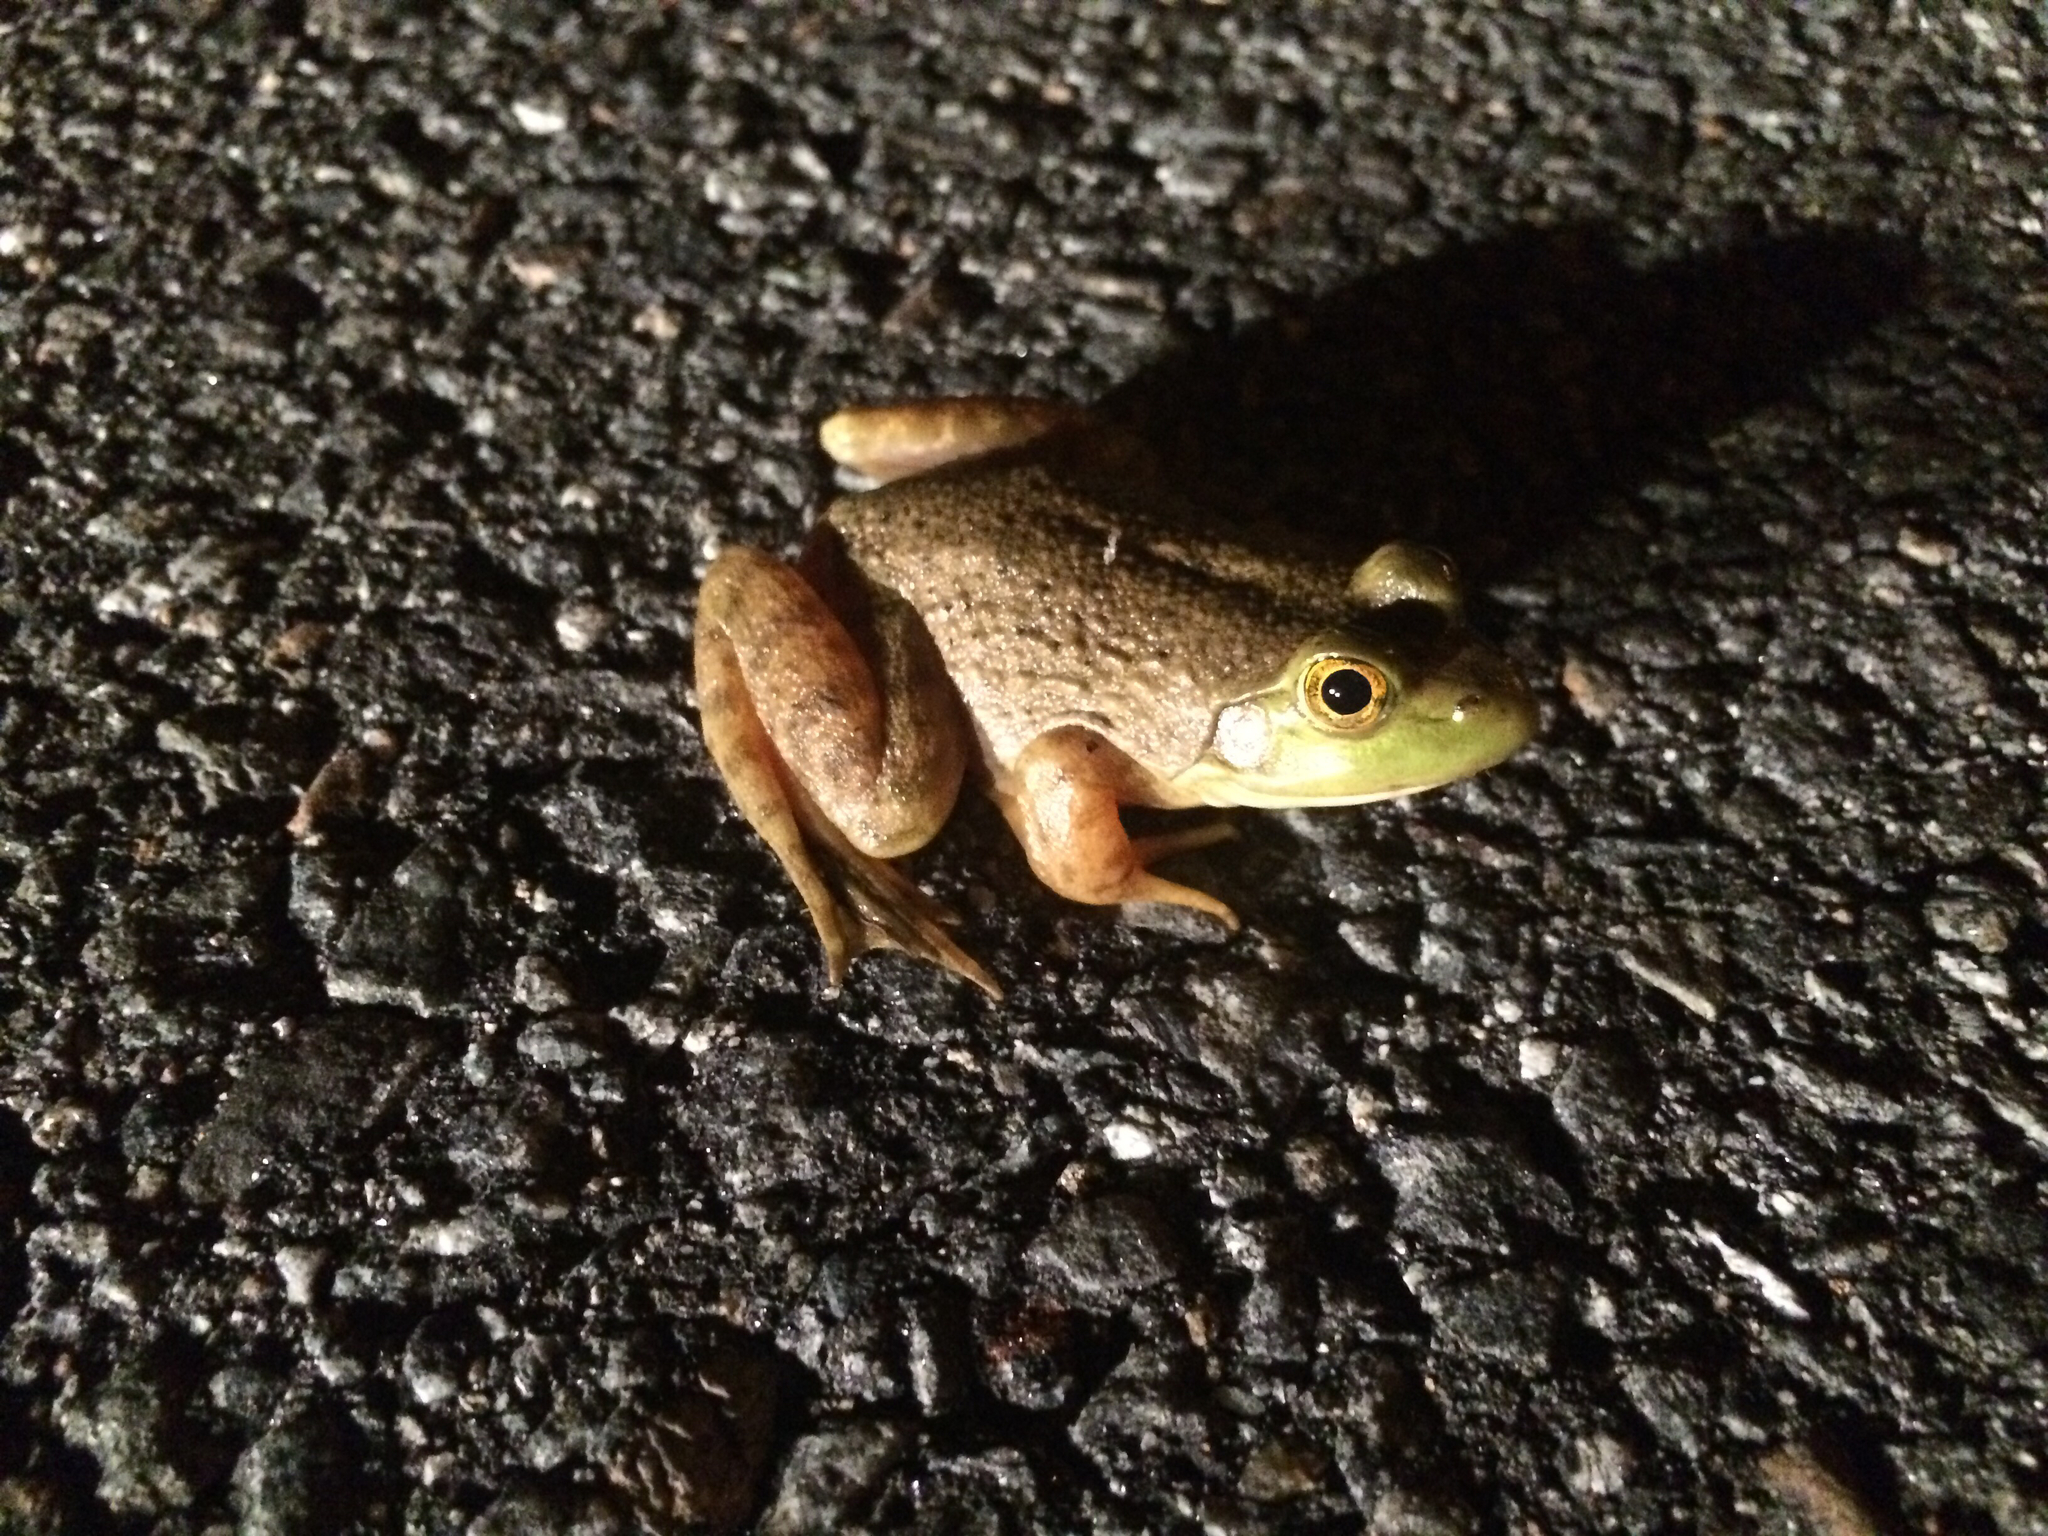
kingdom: Animalia
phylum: Chordata
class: Amphibia
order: Anura
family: Ranidae
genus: Lithobates
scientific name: Lithobates catesbeianus
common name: American bullfrog
